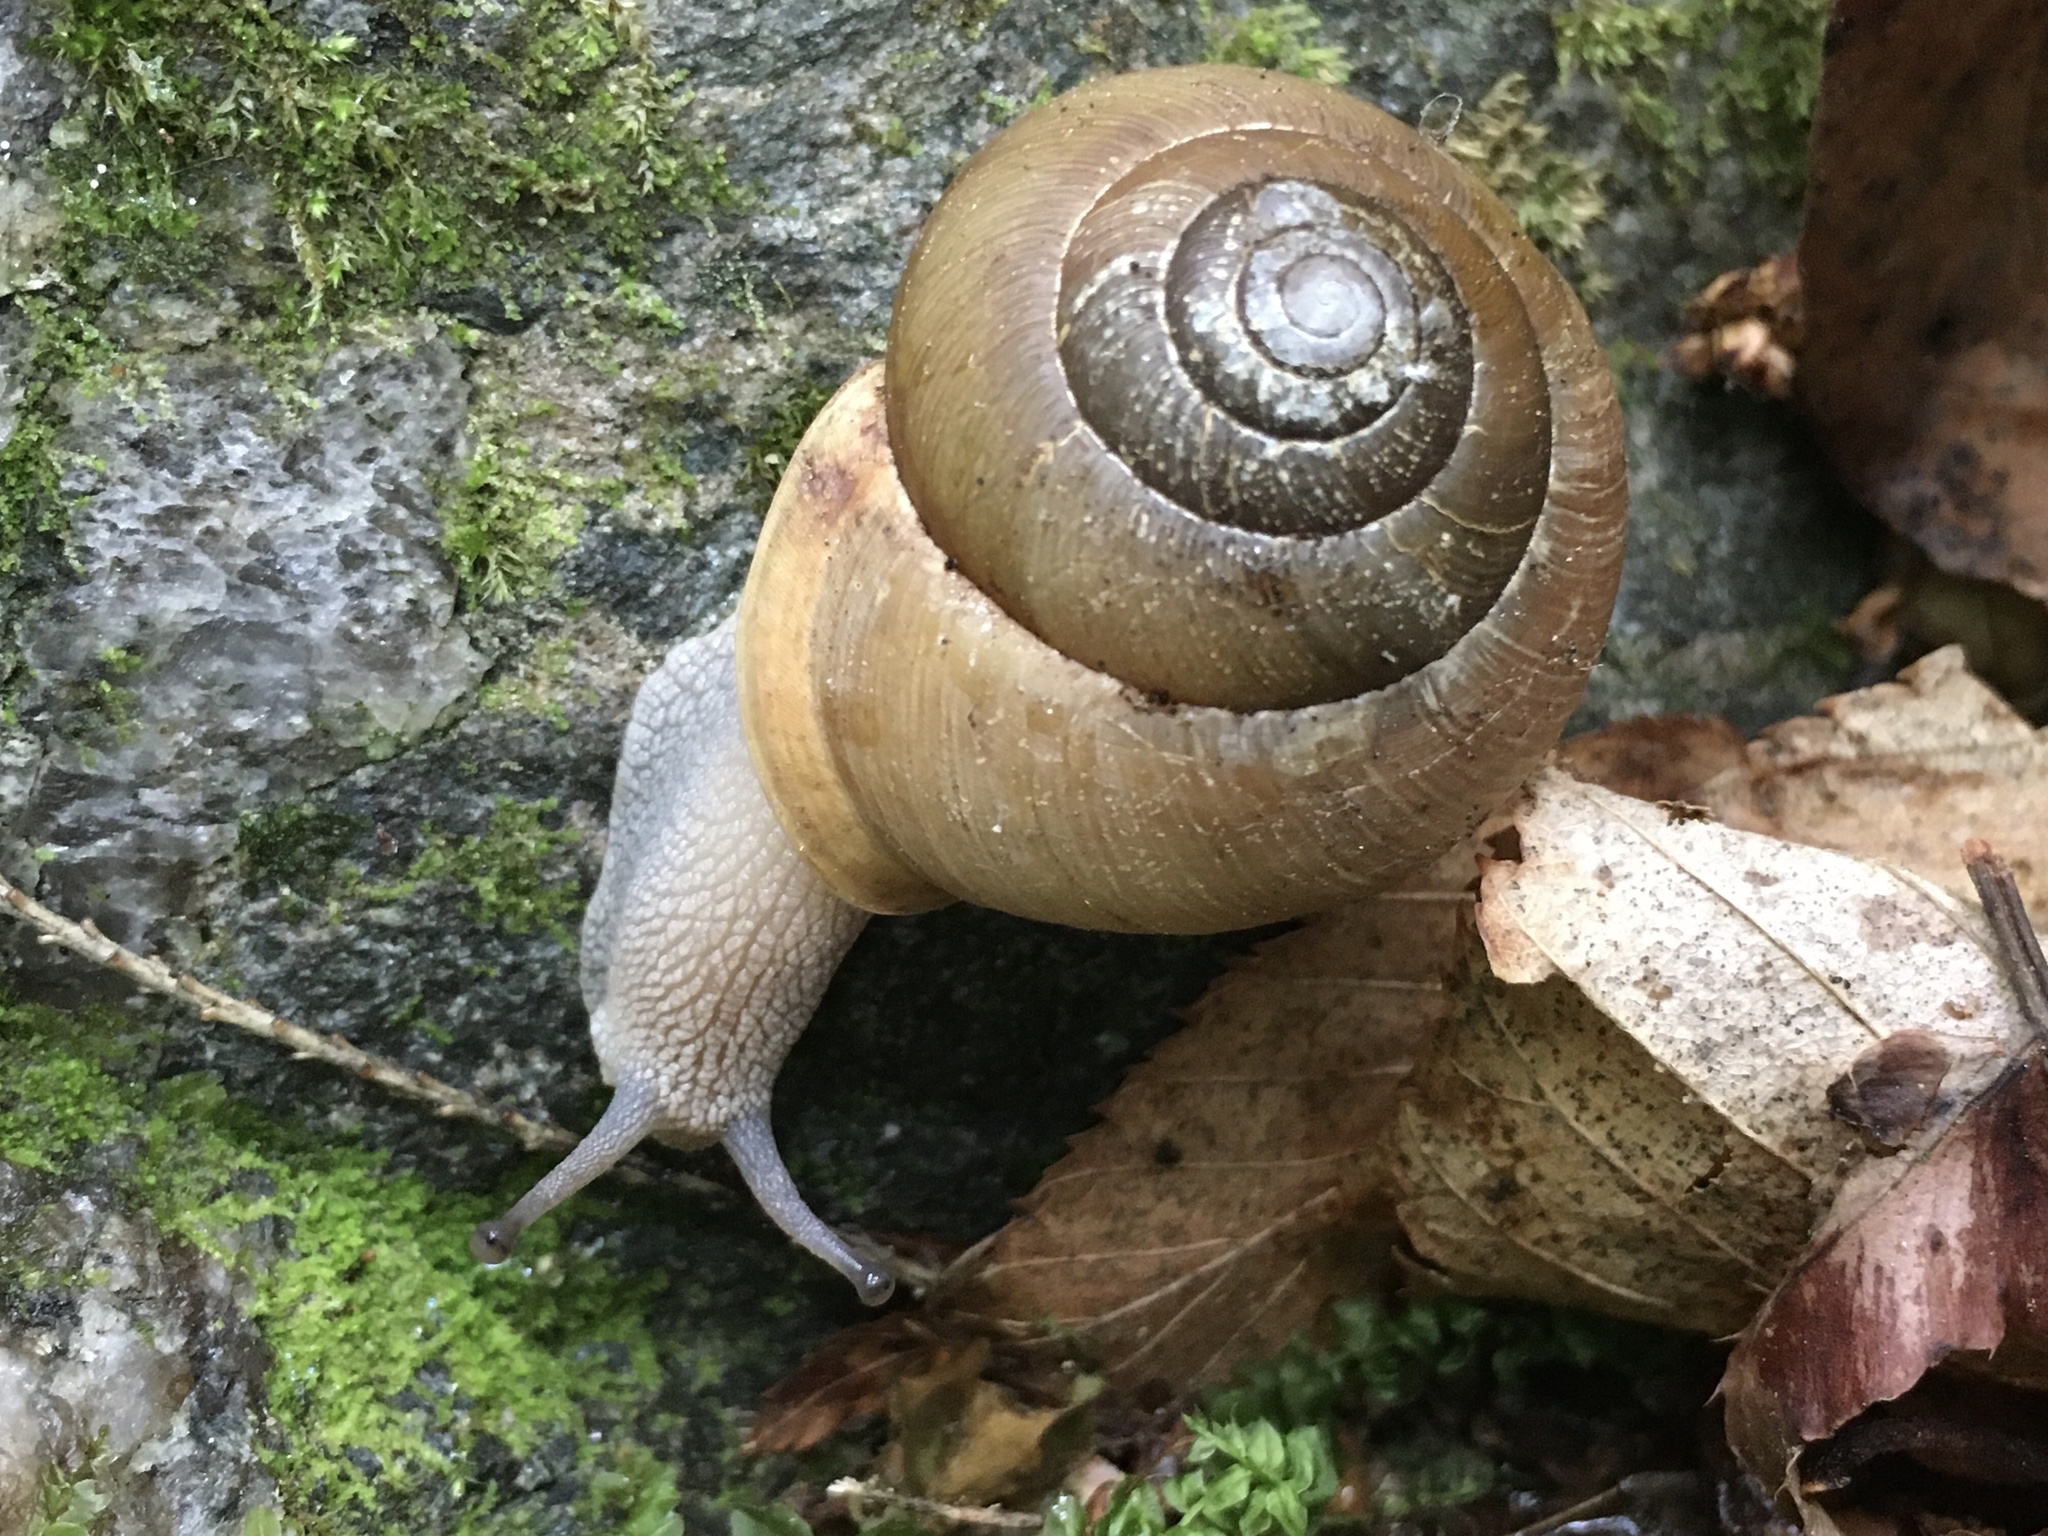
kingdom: Animalia
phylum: Mollusca
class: Gastropoda
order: Stylommatophora
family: Polygyridae
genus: Neohelix
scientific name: Neohelix albolabris
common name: Eastern whitelip
